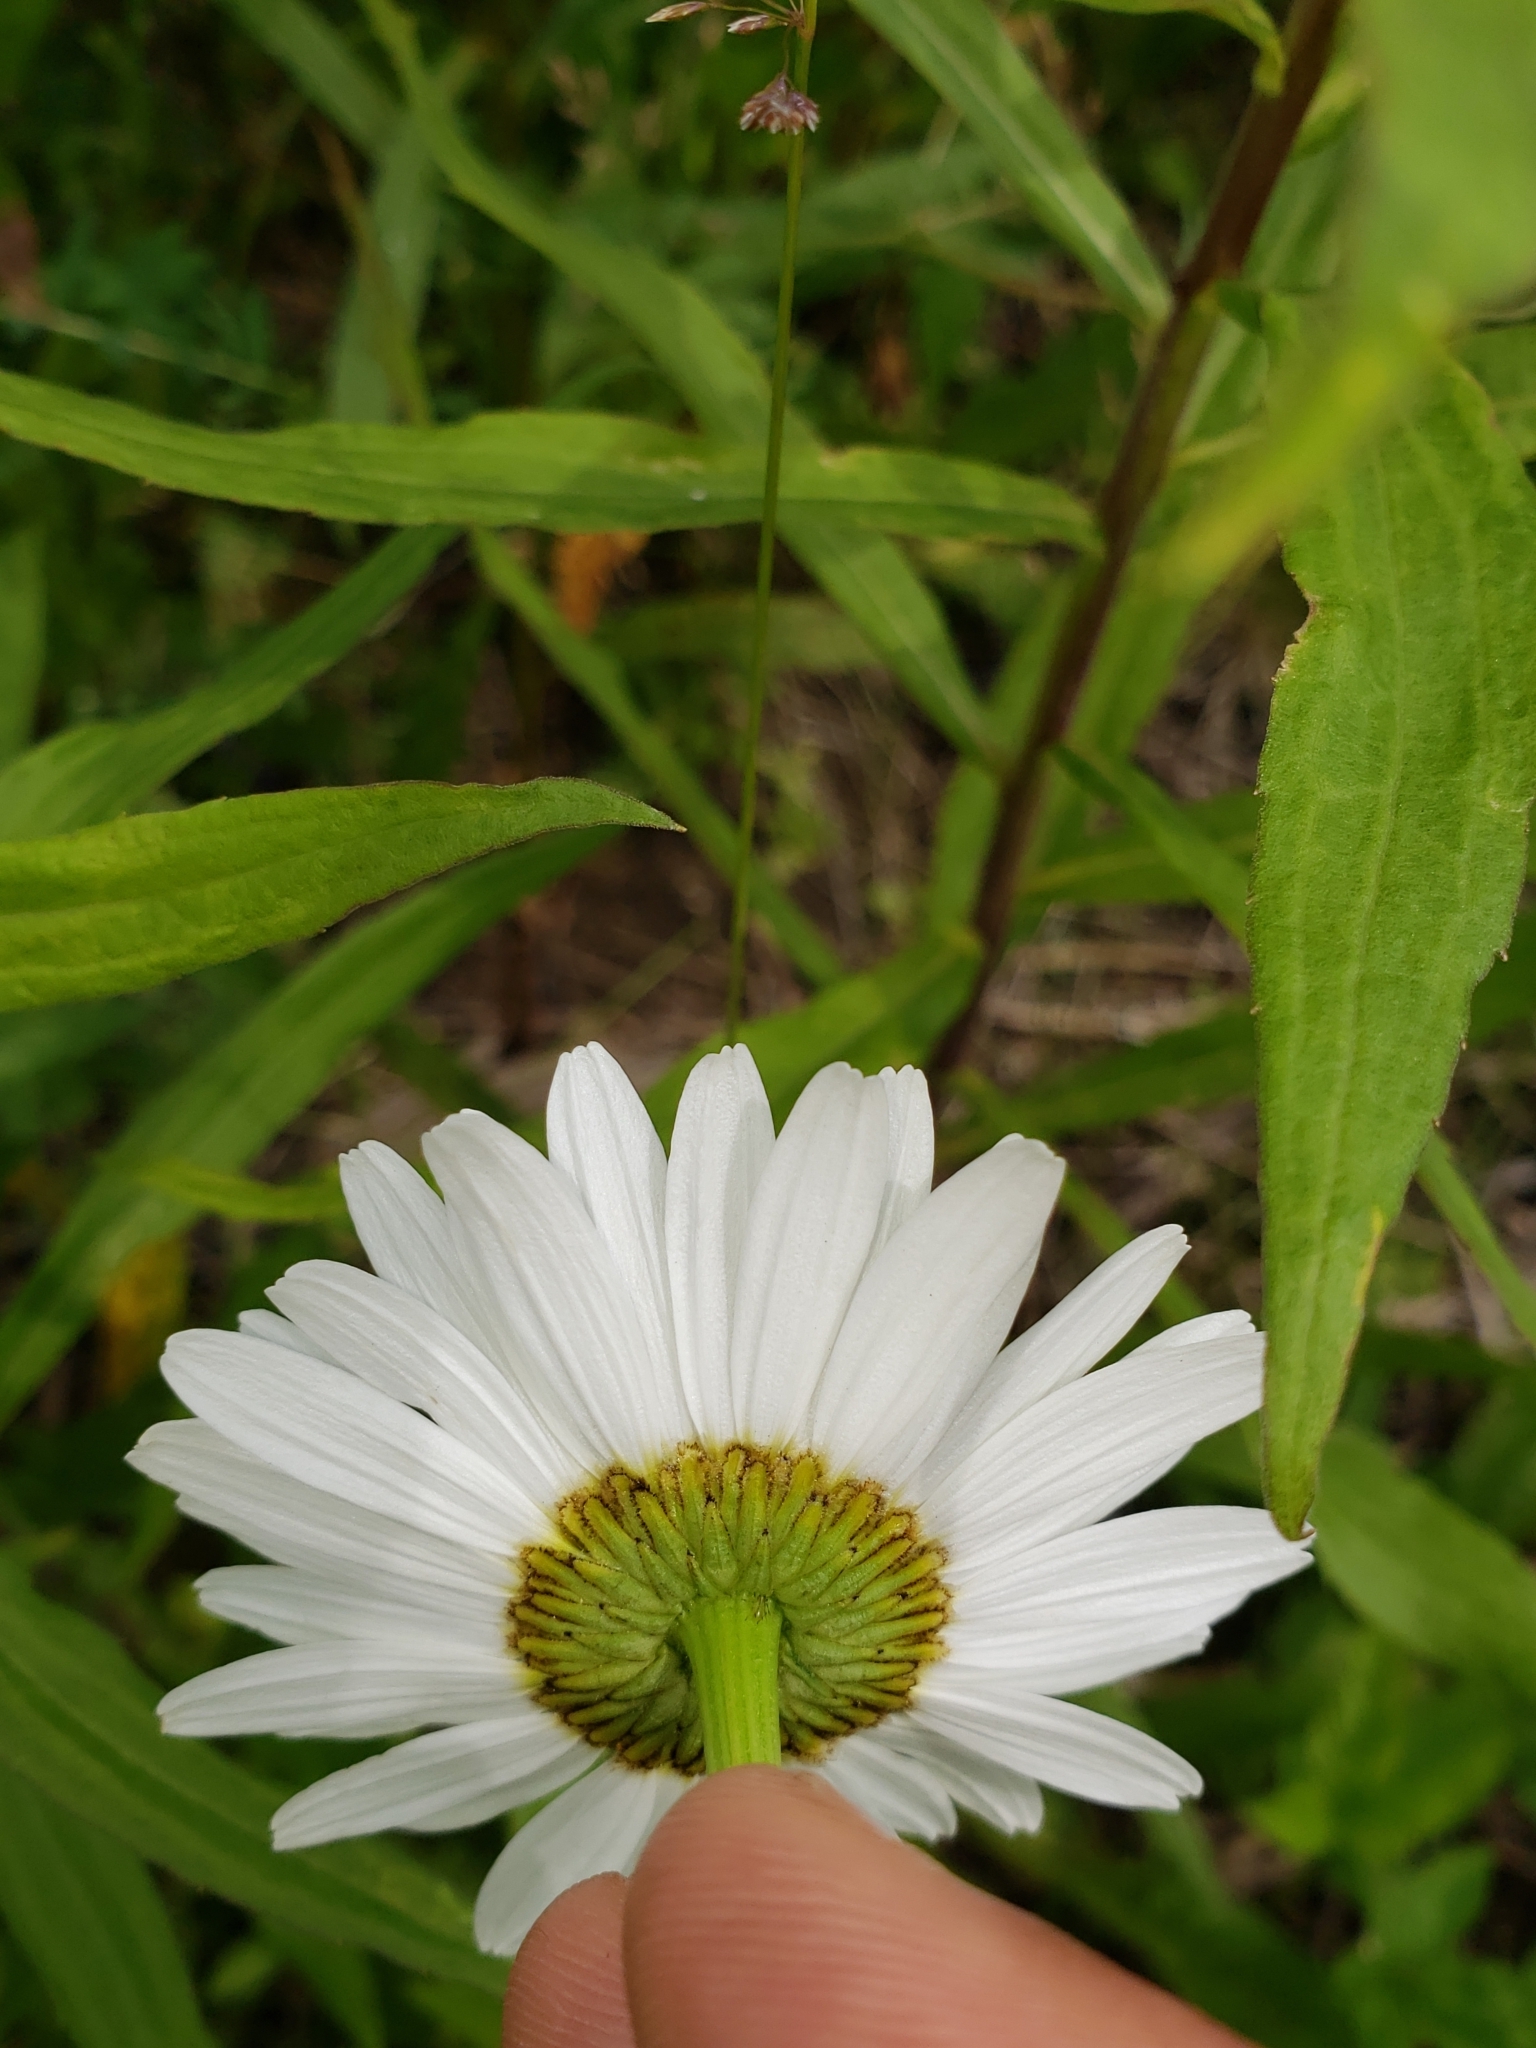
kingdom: Plantae
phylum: Tracheophyta
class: Magnoliopsida
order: Asterales
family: Asteraceae
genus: Leucanthemum
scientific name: Leucanthemum vulgare
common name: Oxeye daisy
